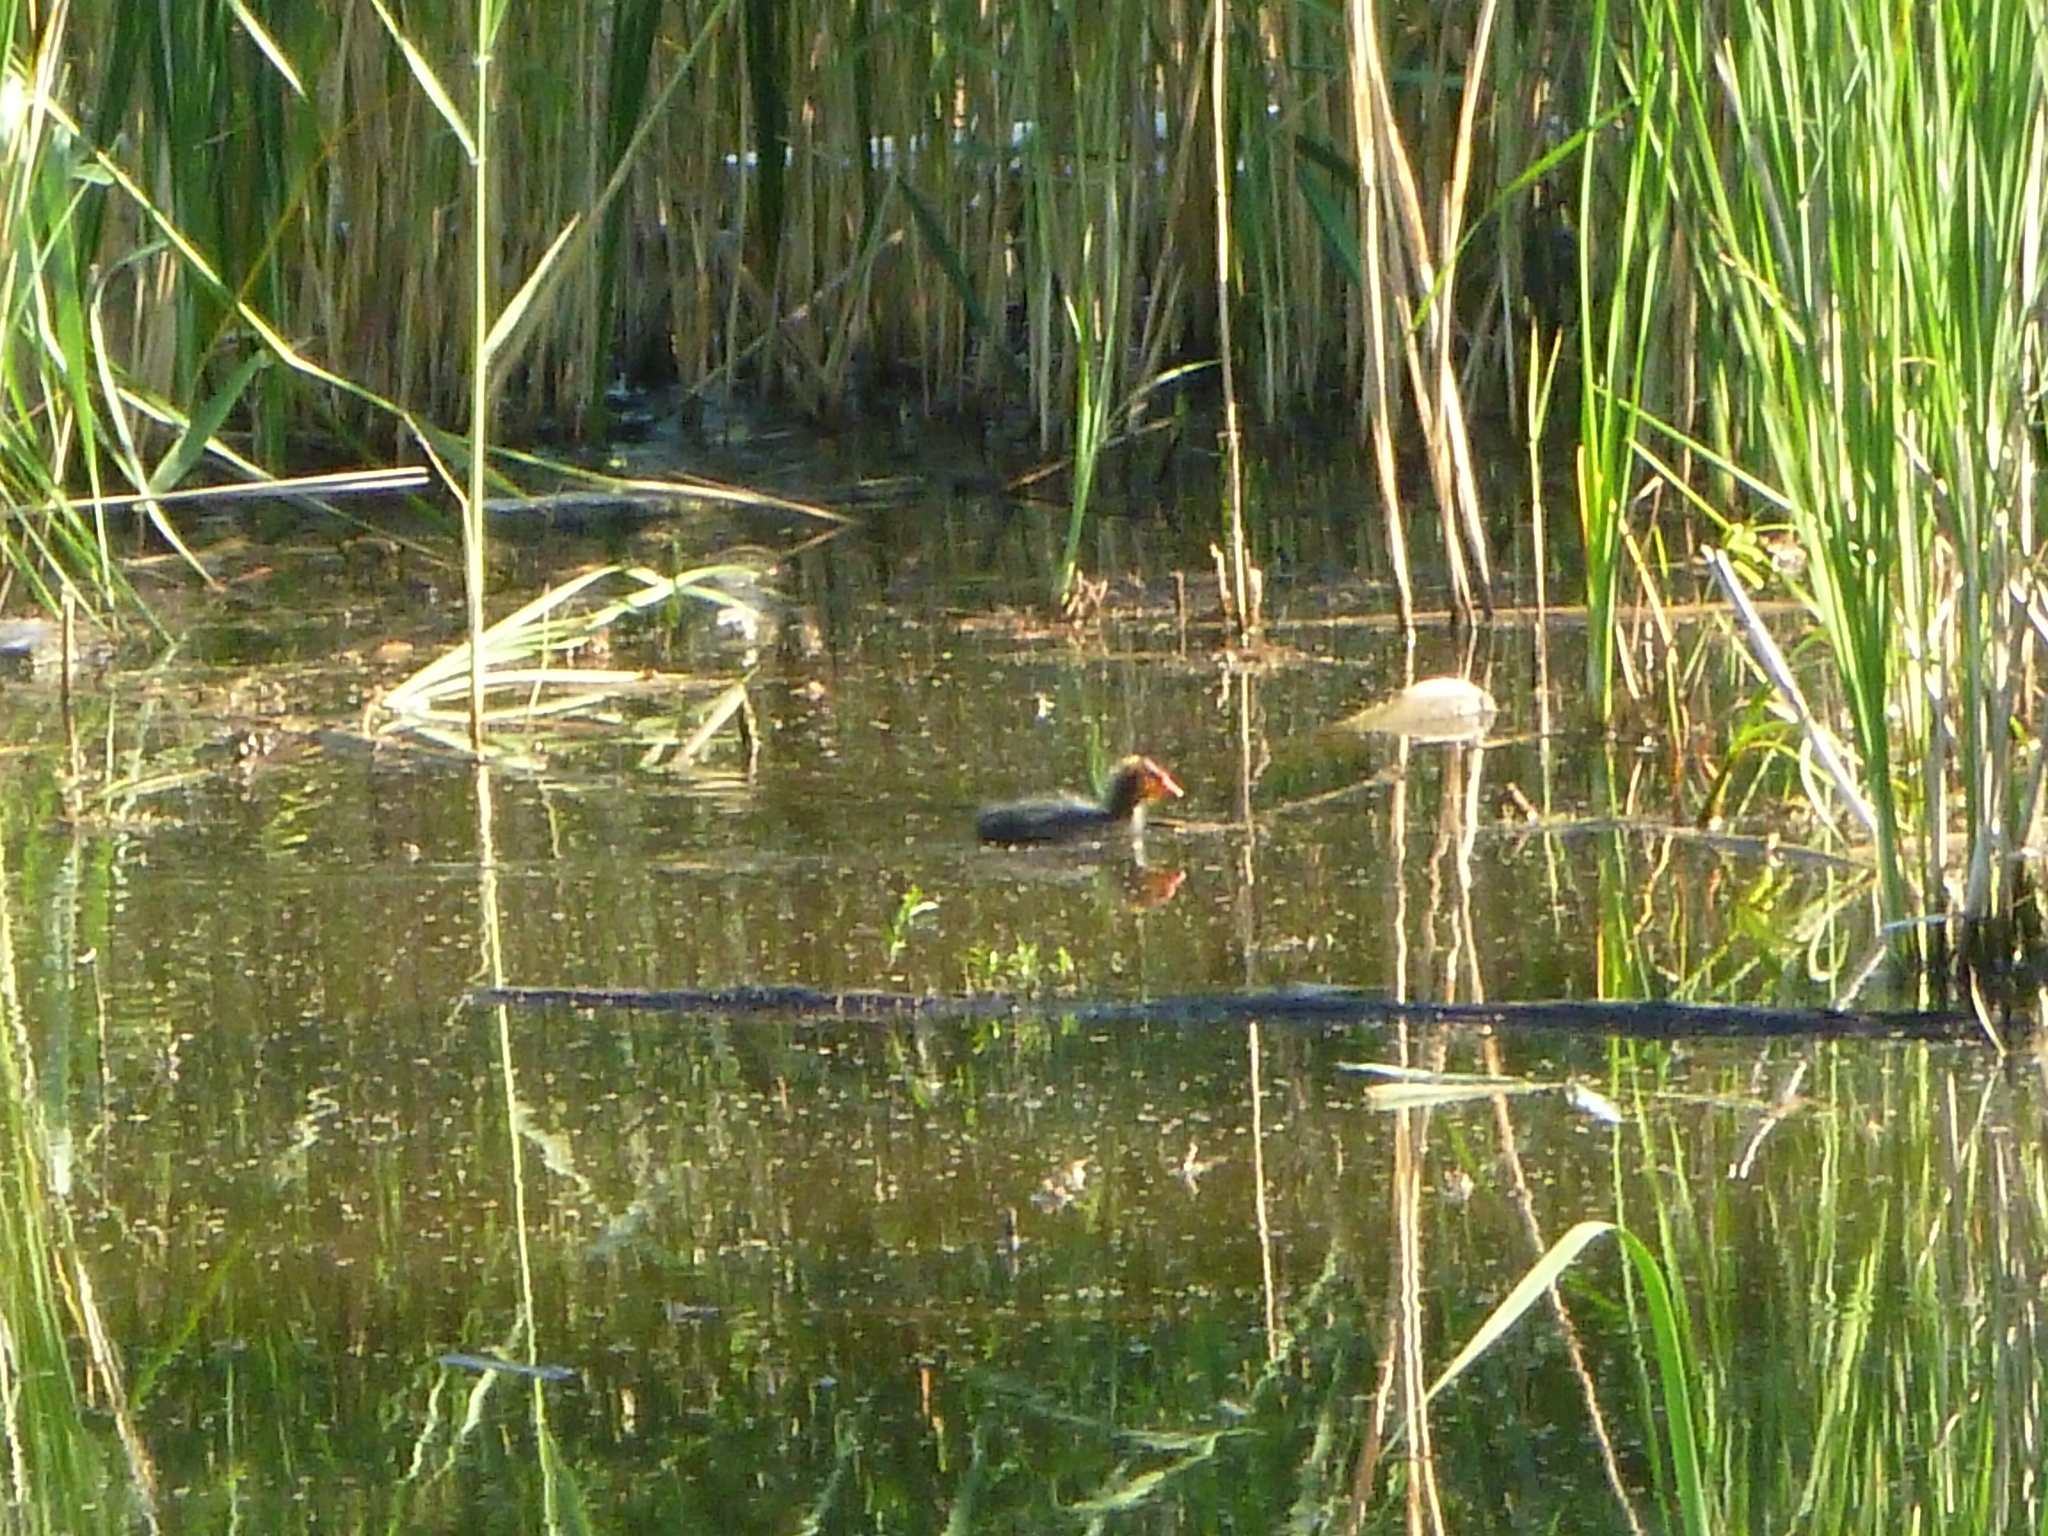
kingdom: Animalia
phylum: Chordata
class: Aves
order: Gruiformes
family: Rallidae
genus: Fulica
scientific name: Fulica atra
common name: Eurasian coot
